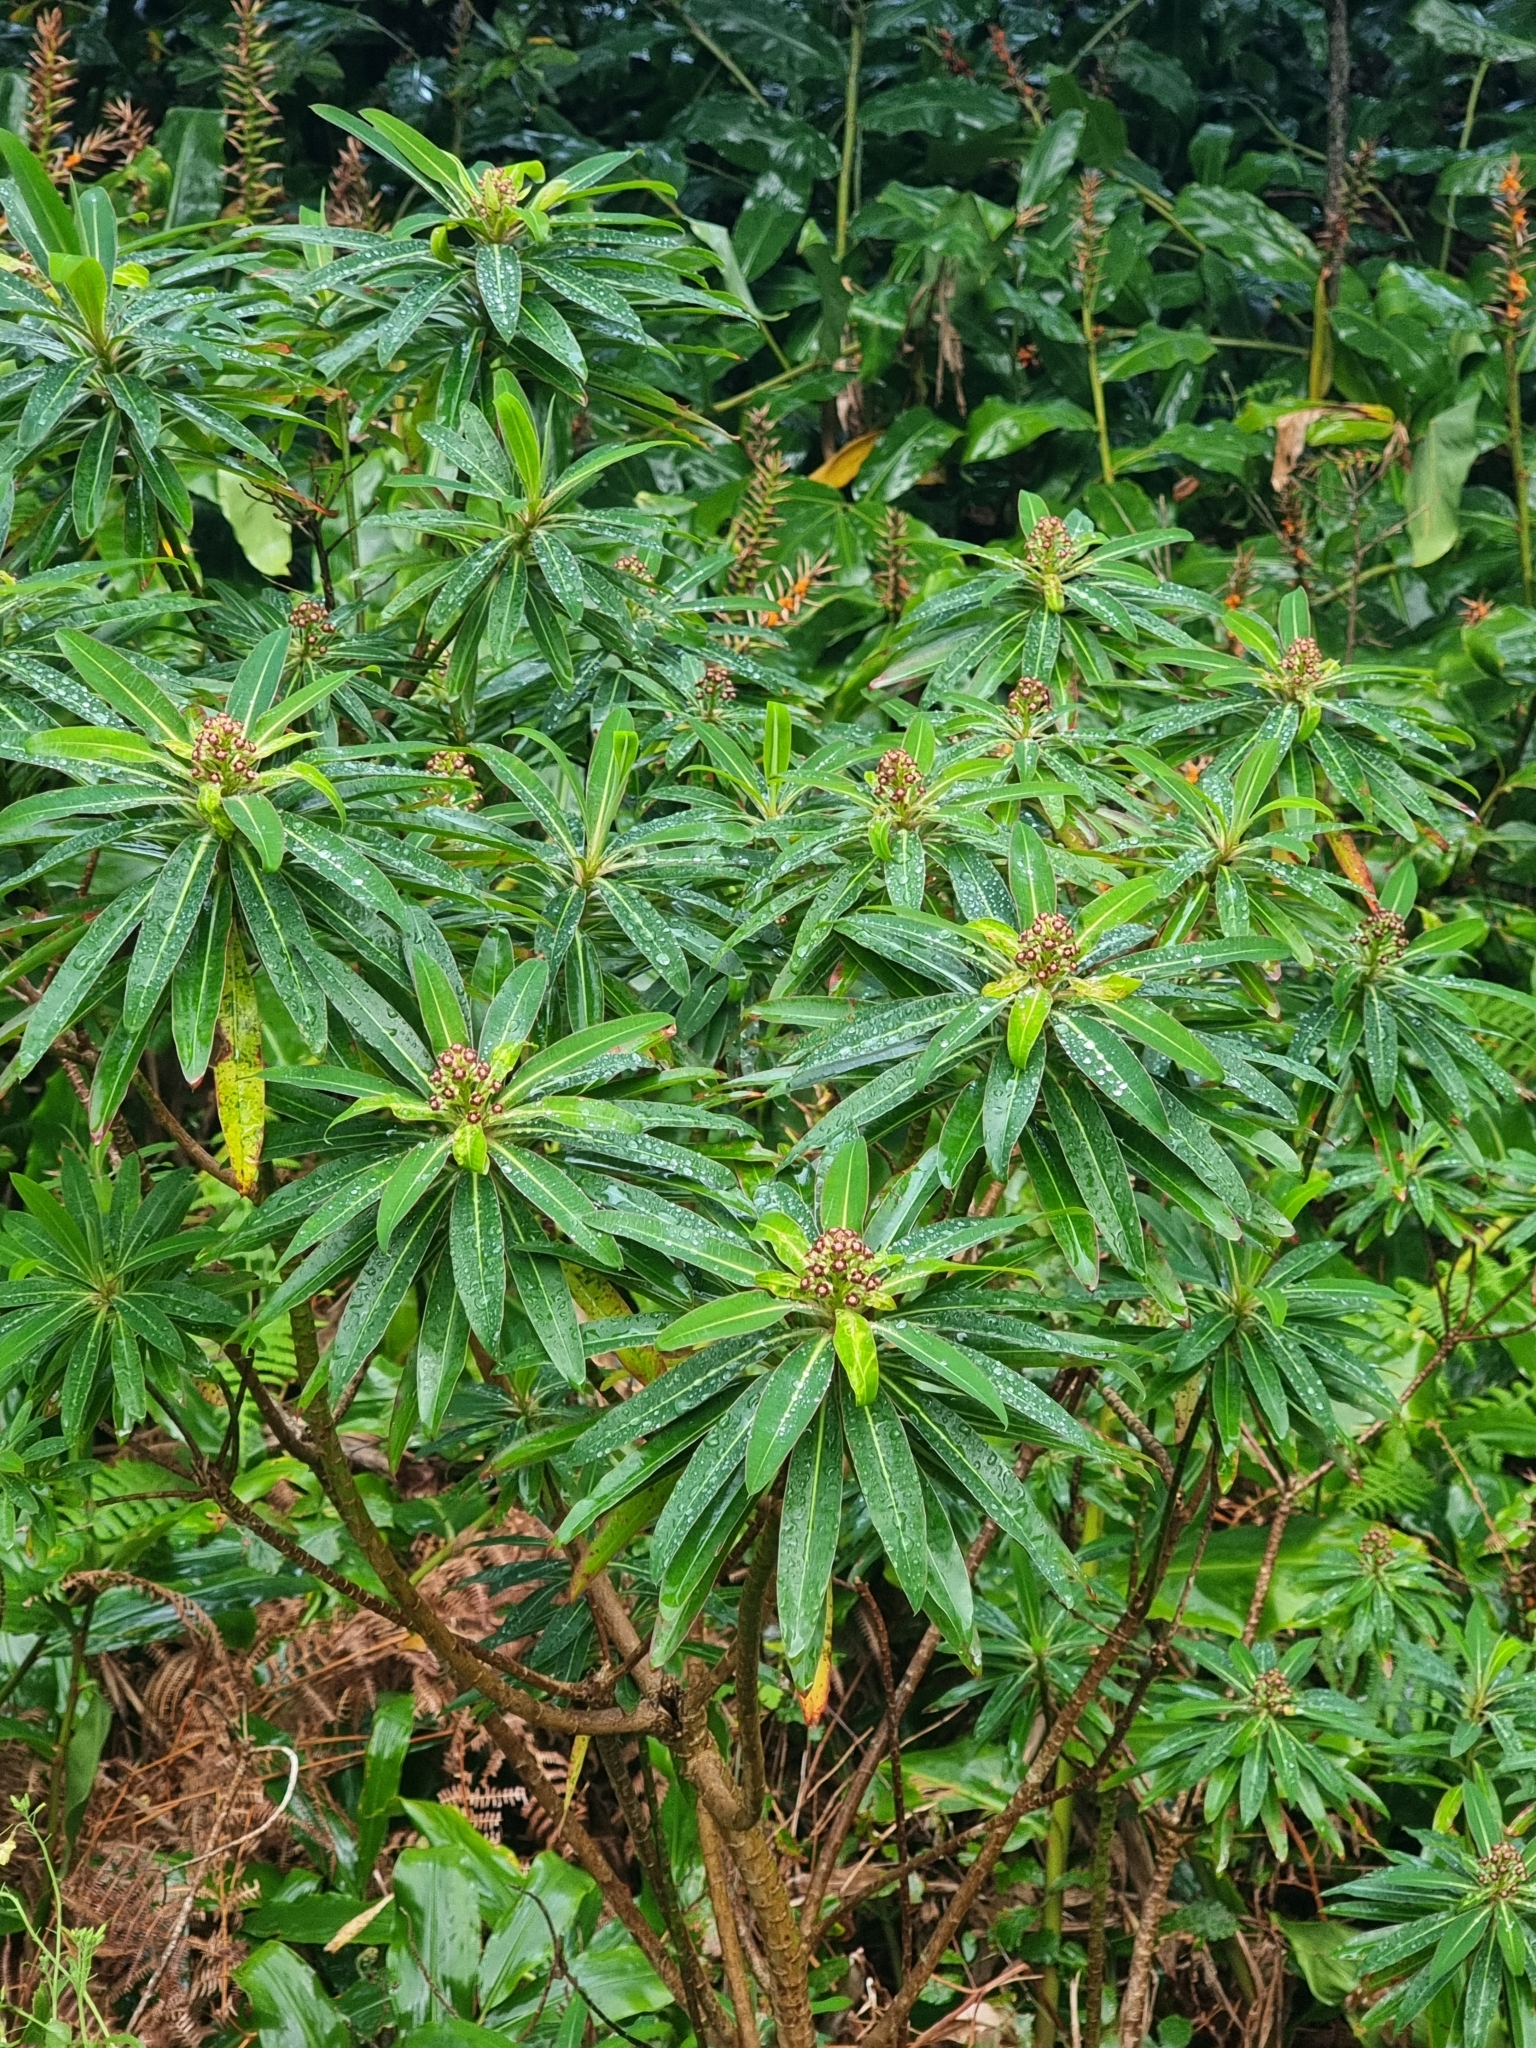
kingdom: Plantae
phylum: Tracheophyta
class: Magnoliopsida
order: Malpighiales
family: Euphorbiaceae
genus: Euphorbia
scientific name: Euphorbia mellifera
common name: Canary spurge
